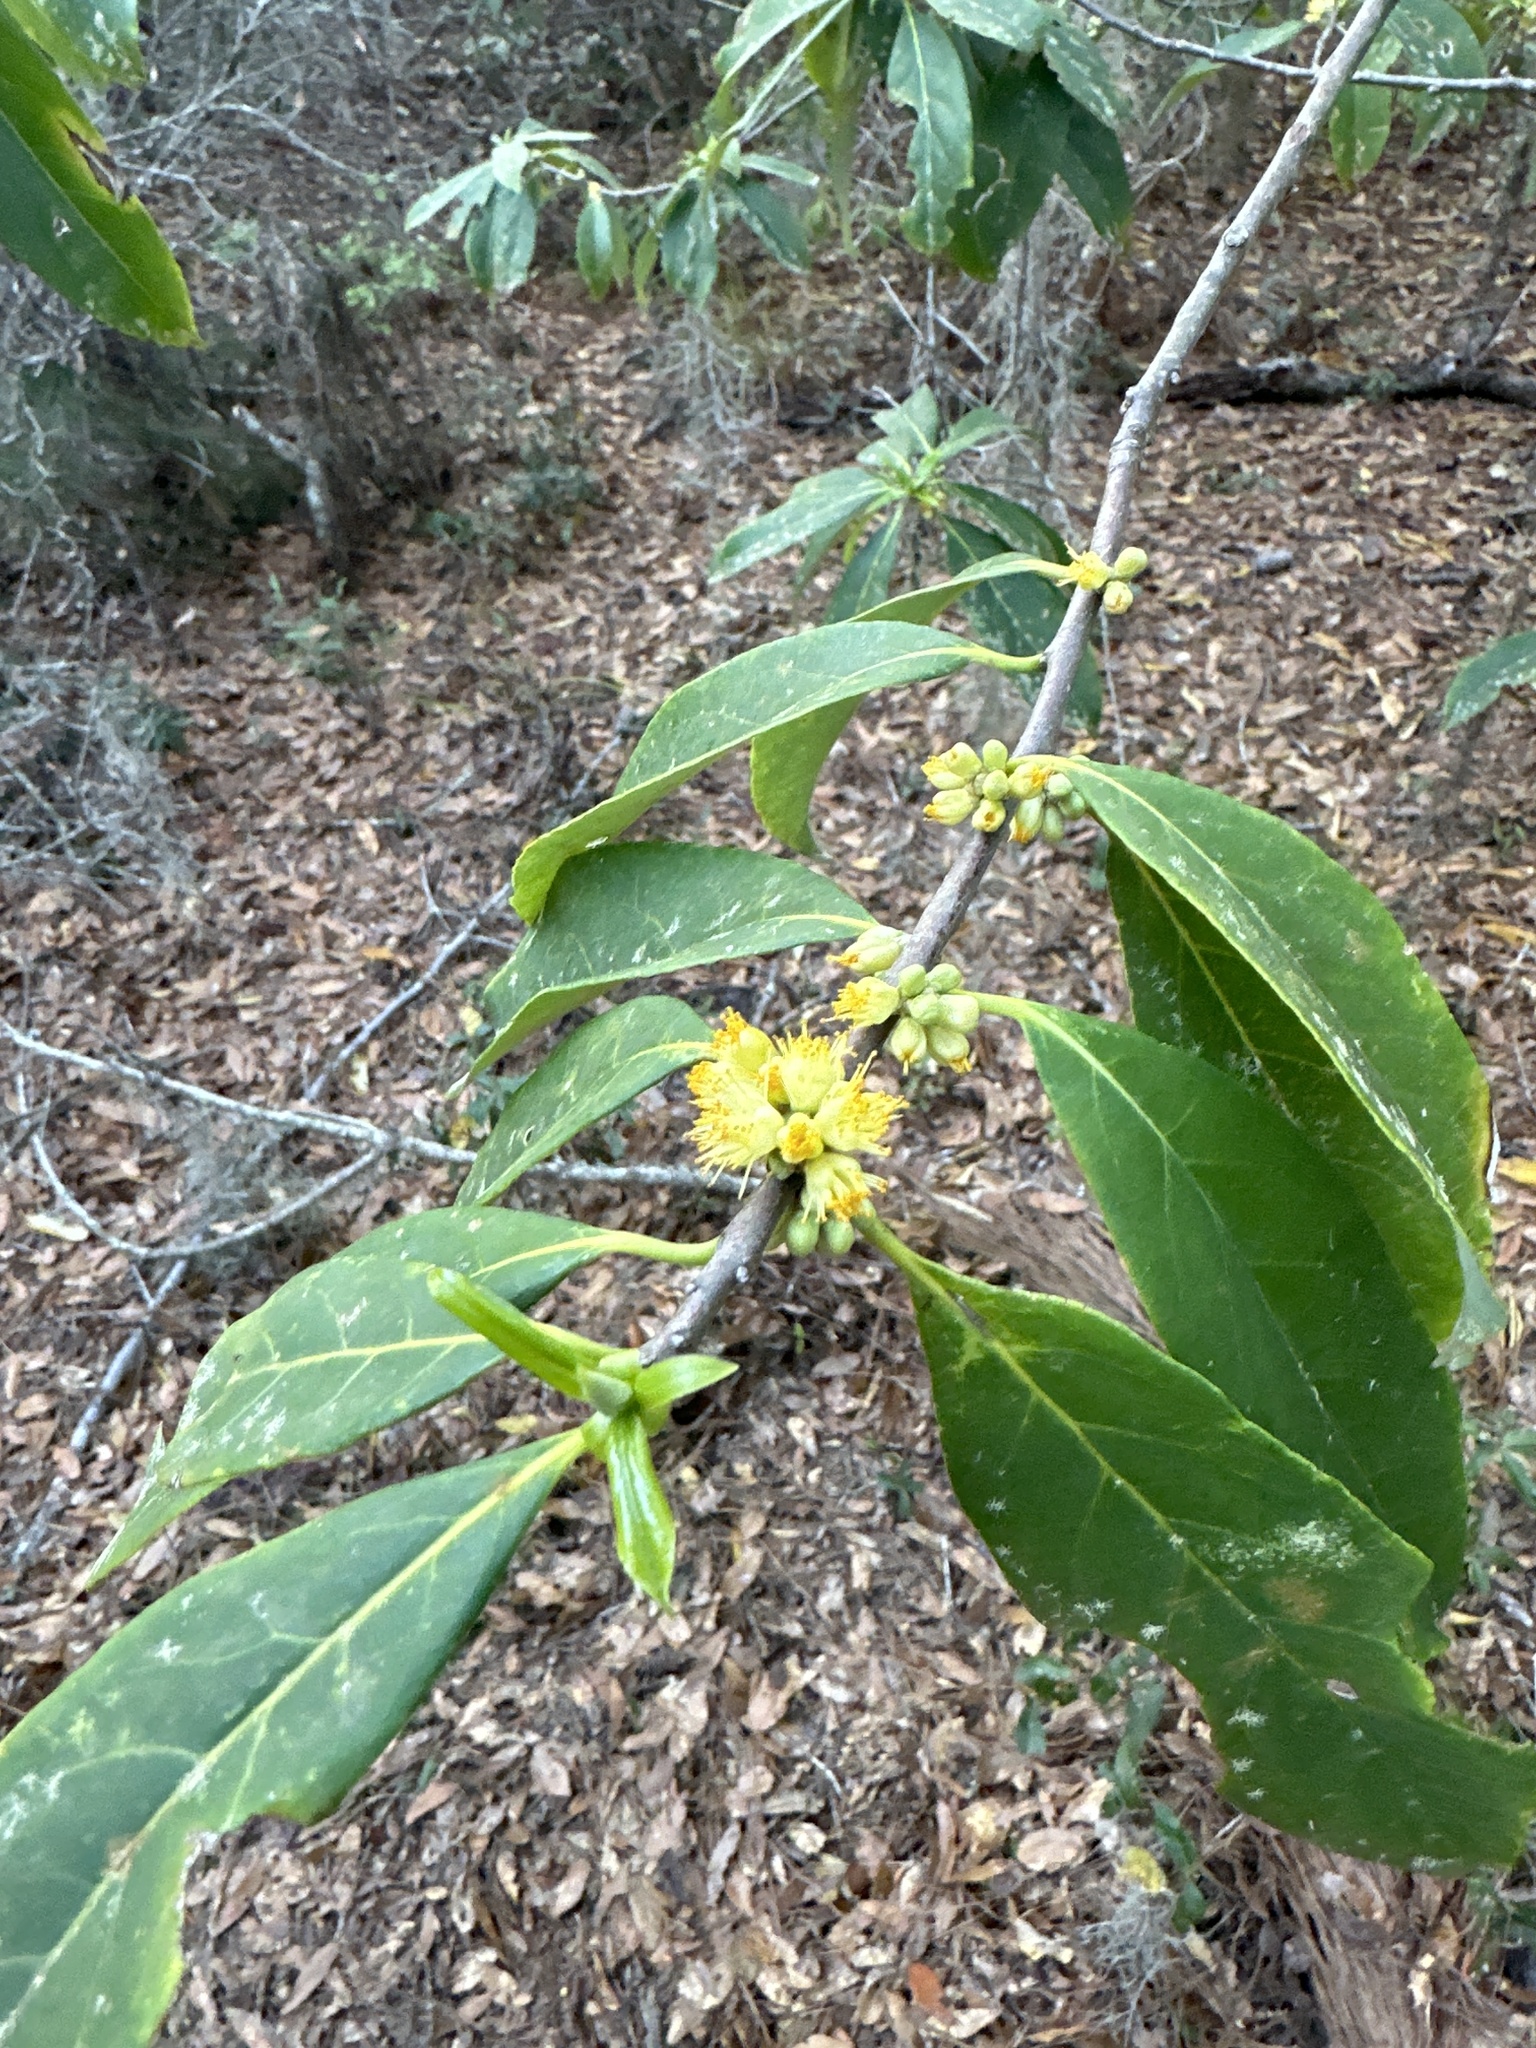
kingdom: Plantae
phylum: Tracheophyta
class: Magnoliopsida
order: Ericales
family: Symplocaceae
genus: Symplocos
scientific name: Symplocos tinctoria
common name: Horse-sugar
